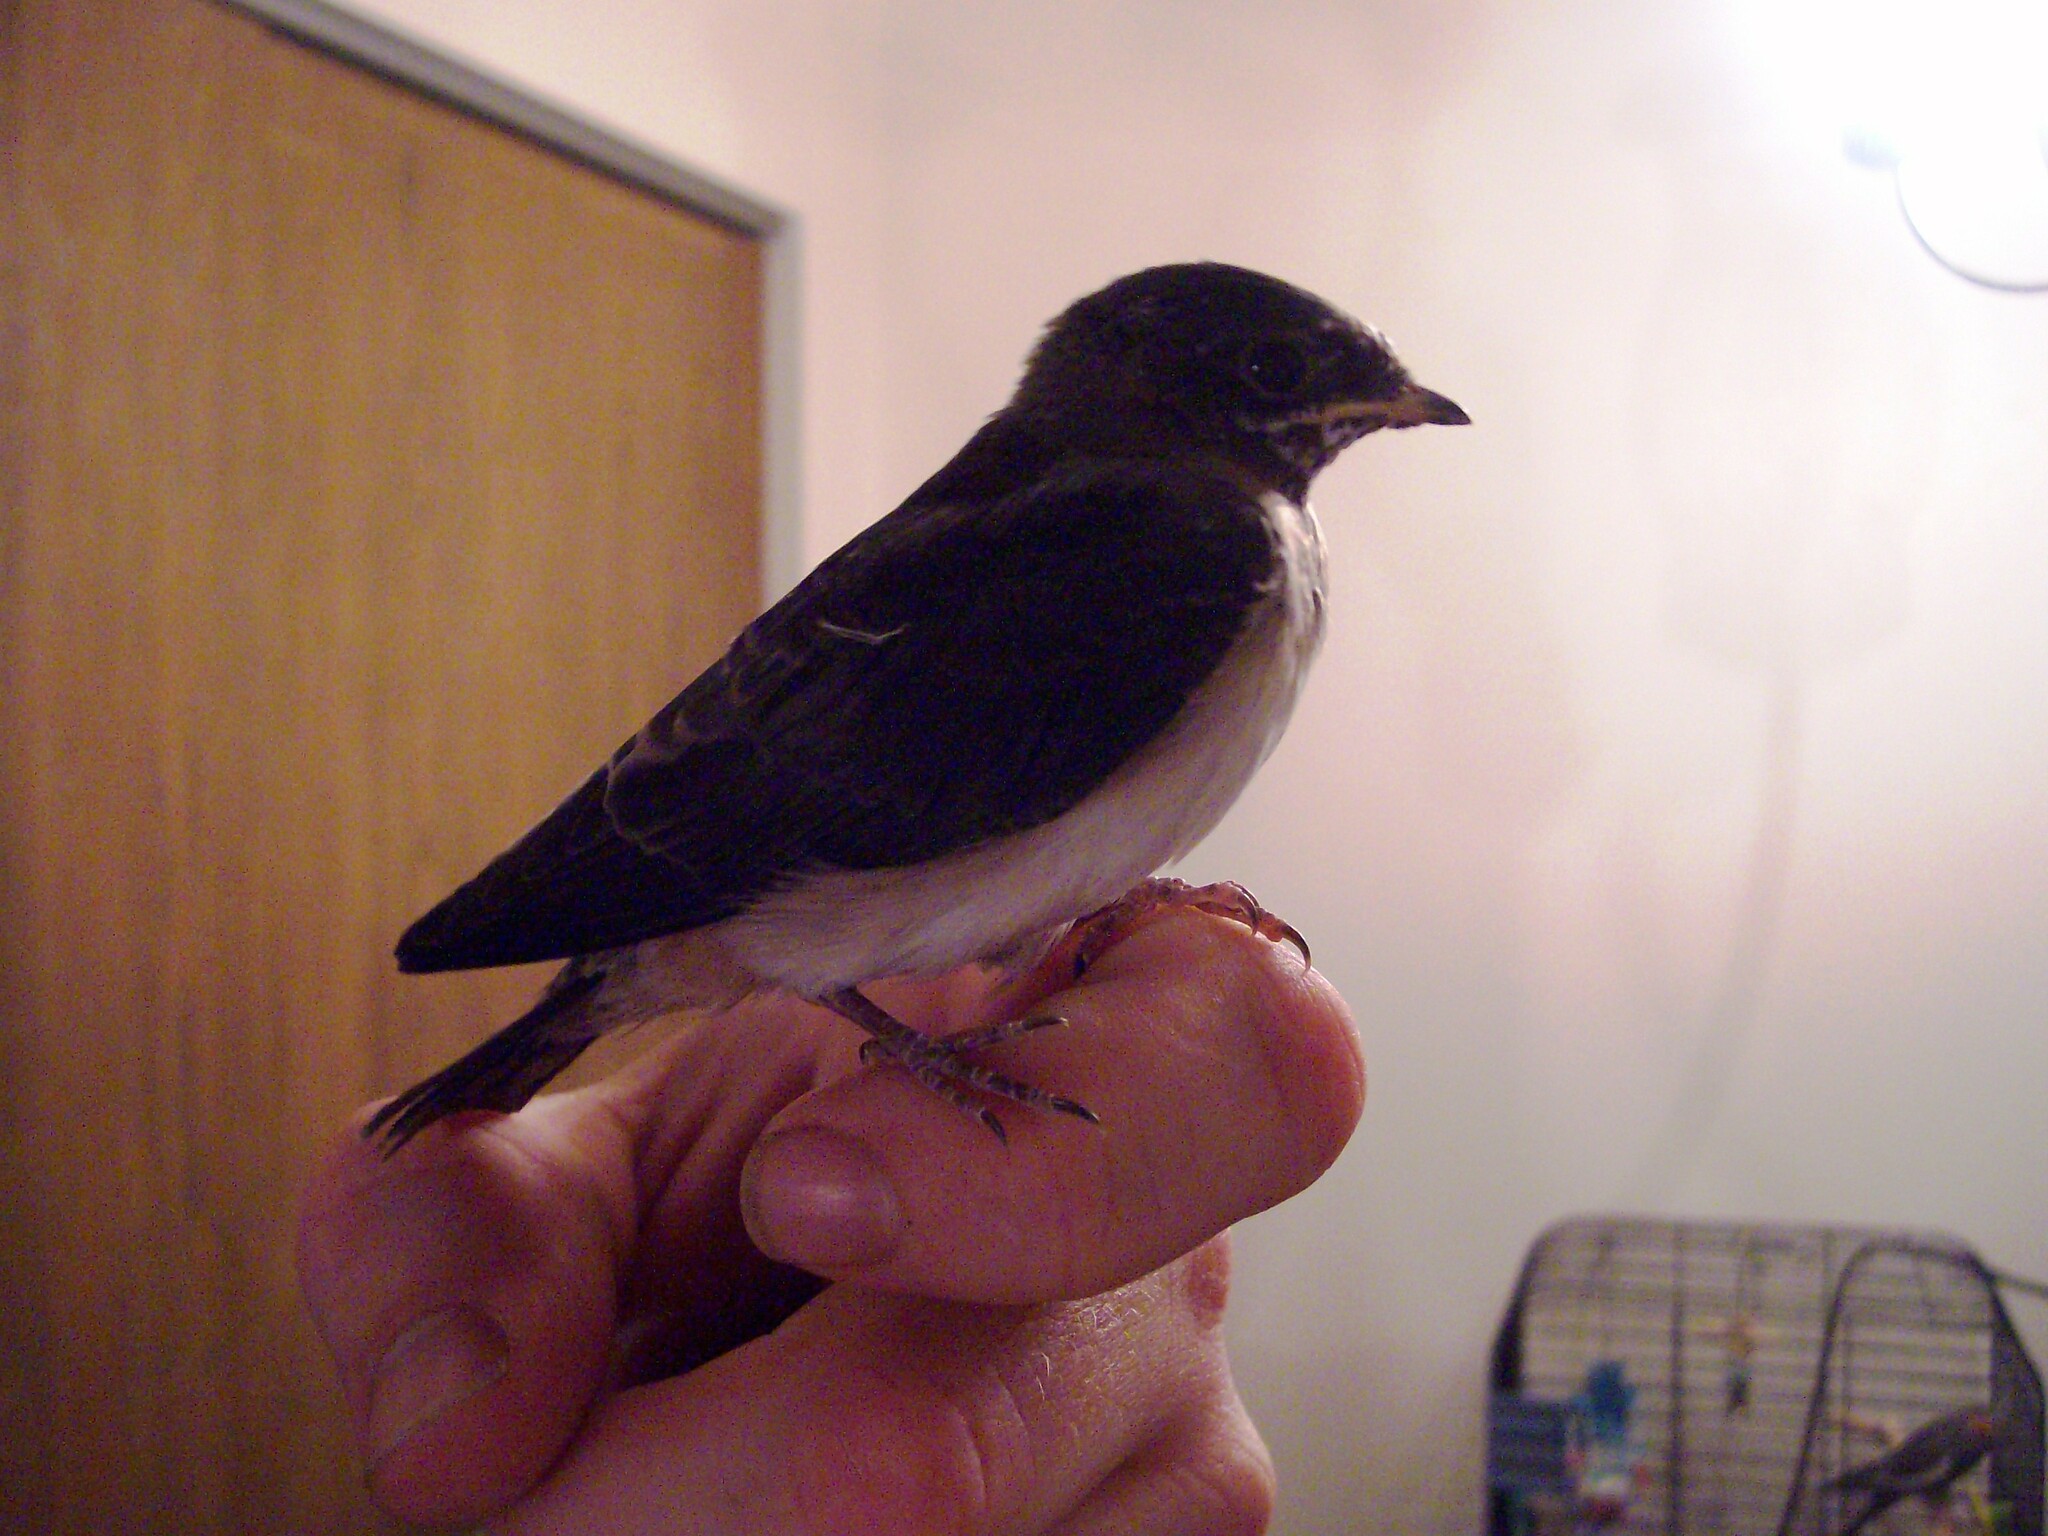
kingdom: Animalia
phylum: Chordata
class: Aves
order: Passeriformes
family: Hirundinidae
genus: Petrochelidon
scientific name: Petrochelidon pyrrhonota
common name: American cliff swallow
